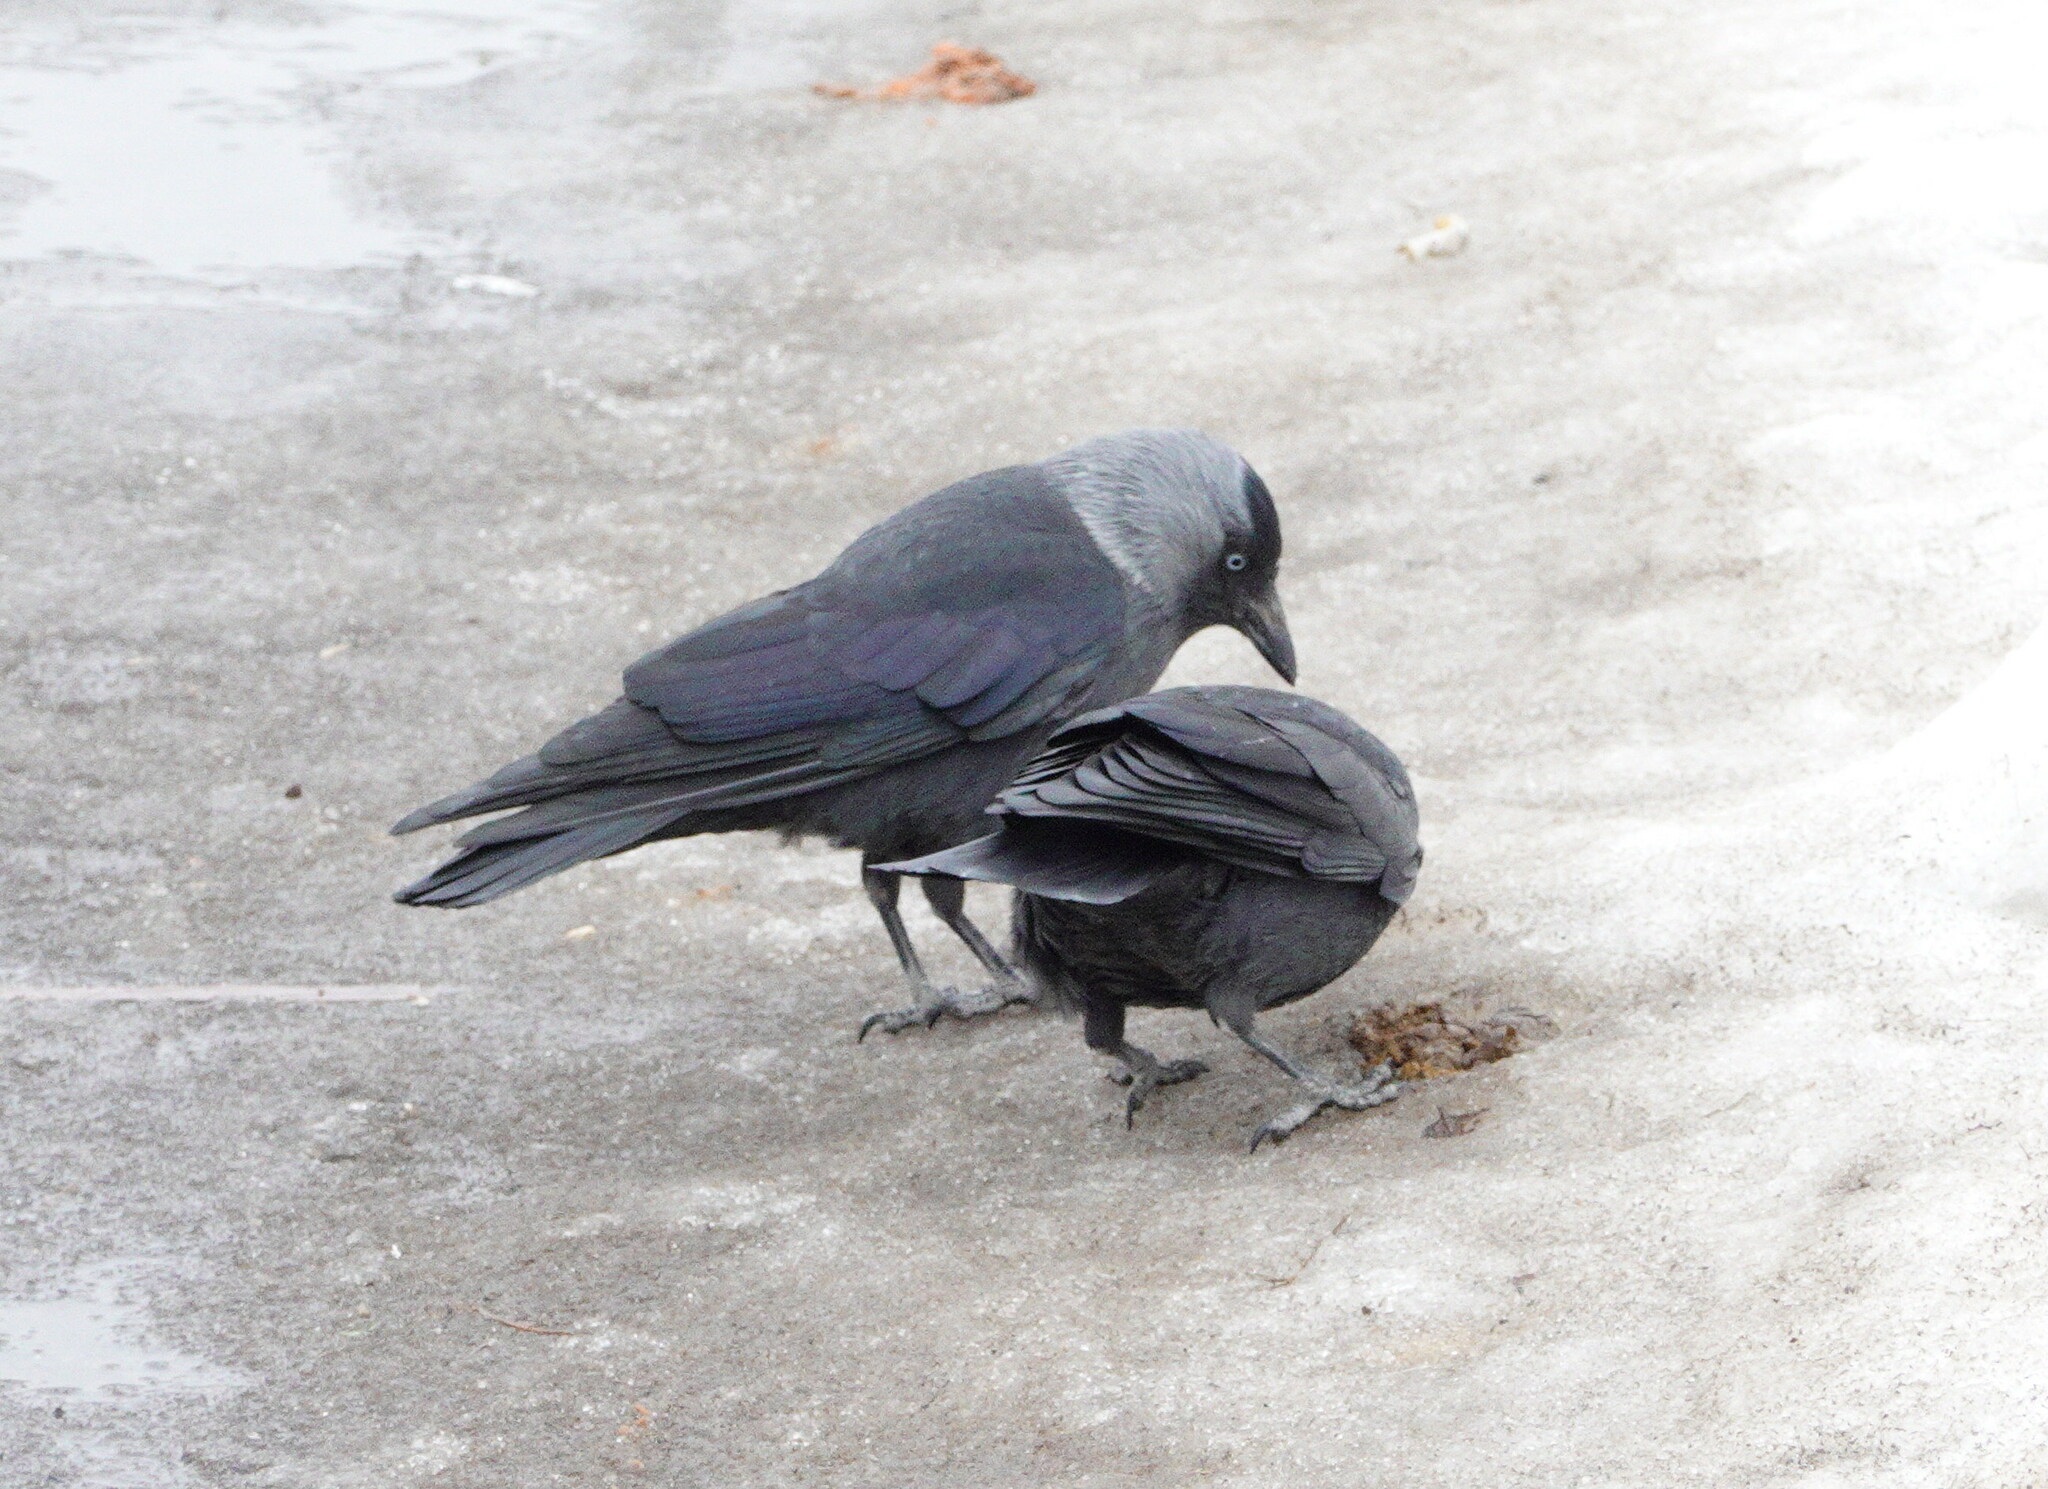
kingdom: Animalia
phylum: Chordata
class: Aves
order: Passeriformes
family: Corvidae
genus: Coloeus
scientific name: Coloeus monedula
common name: Western jackdaw
